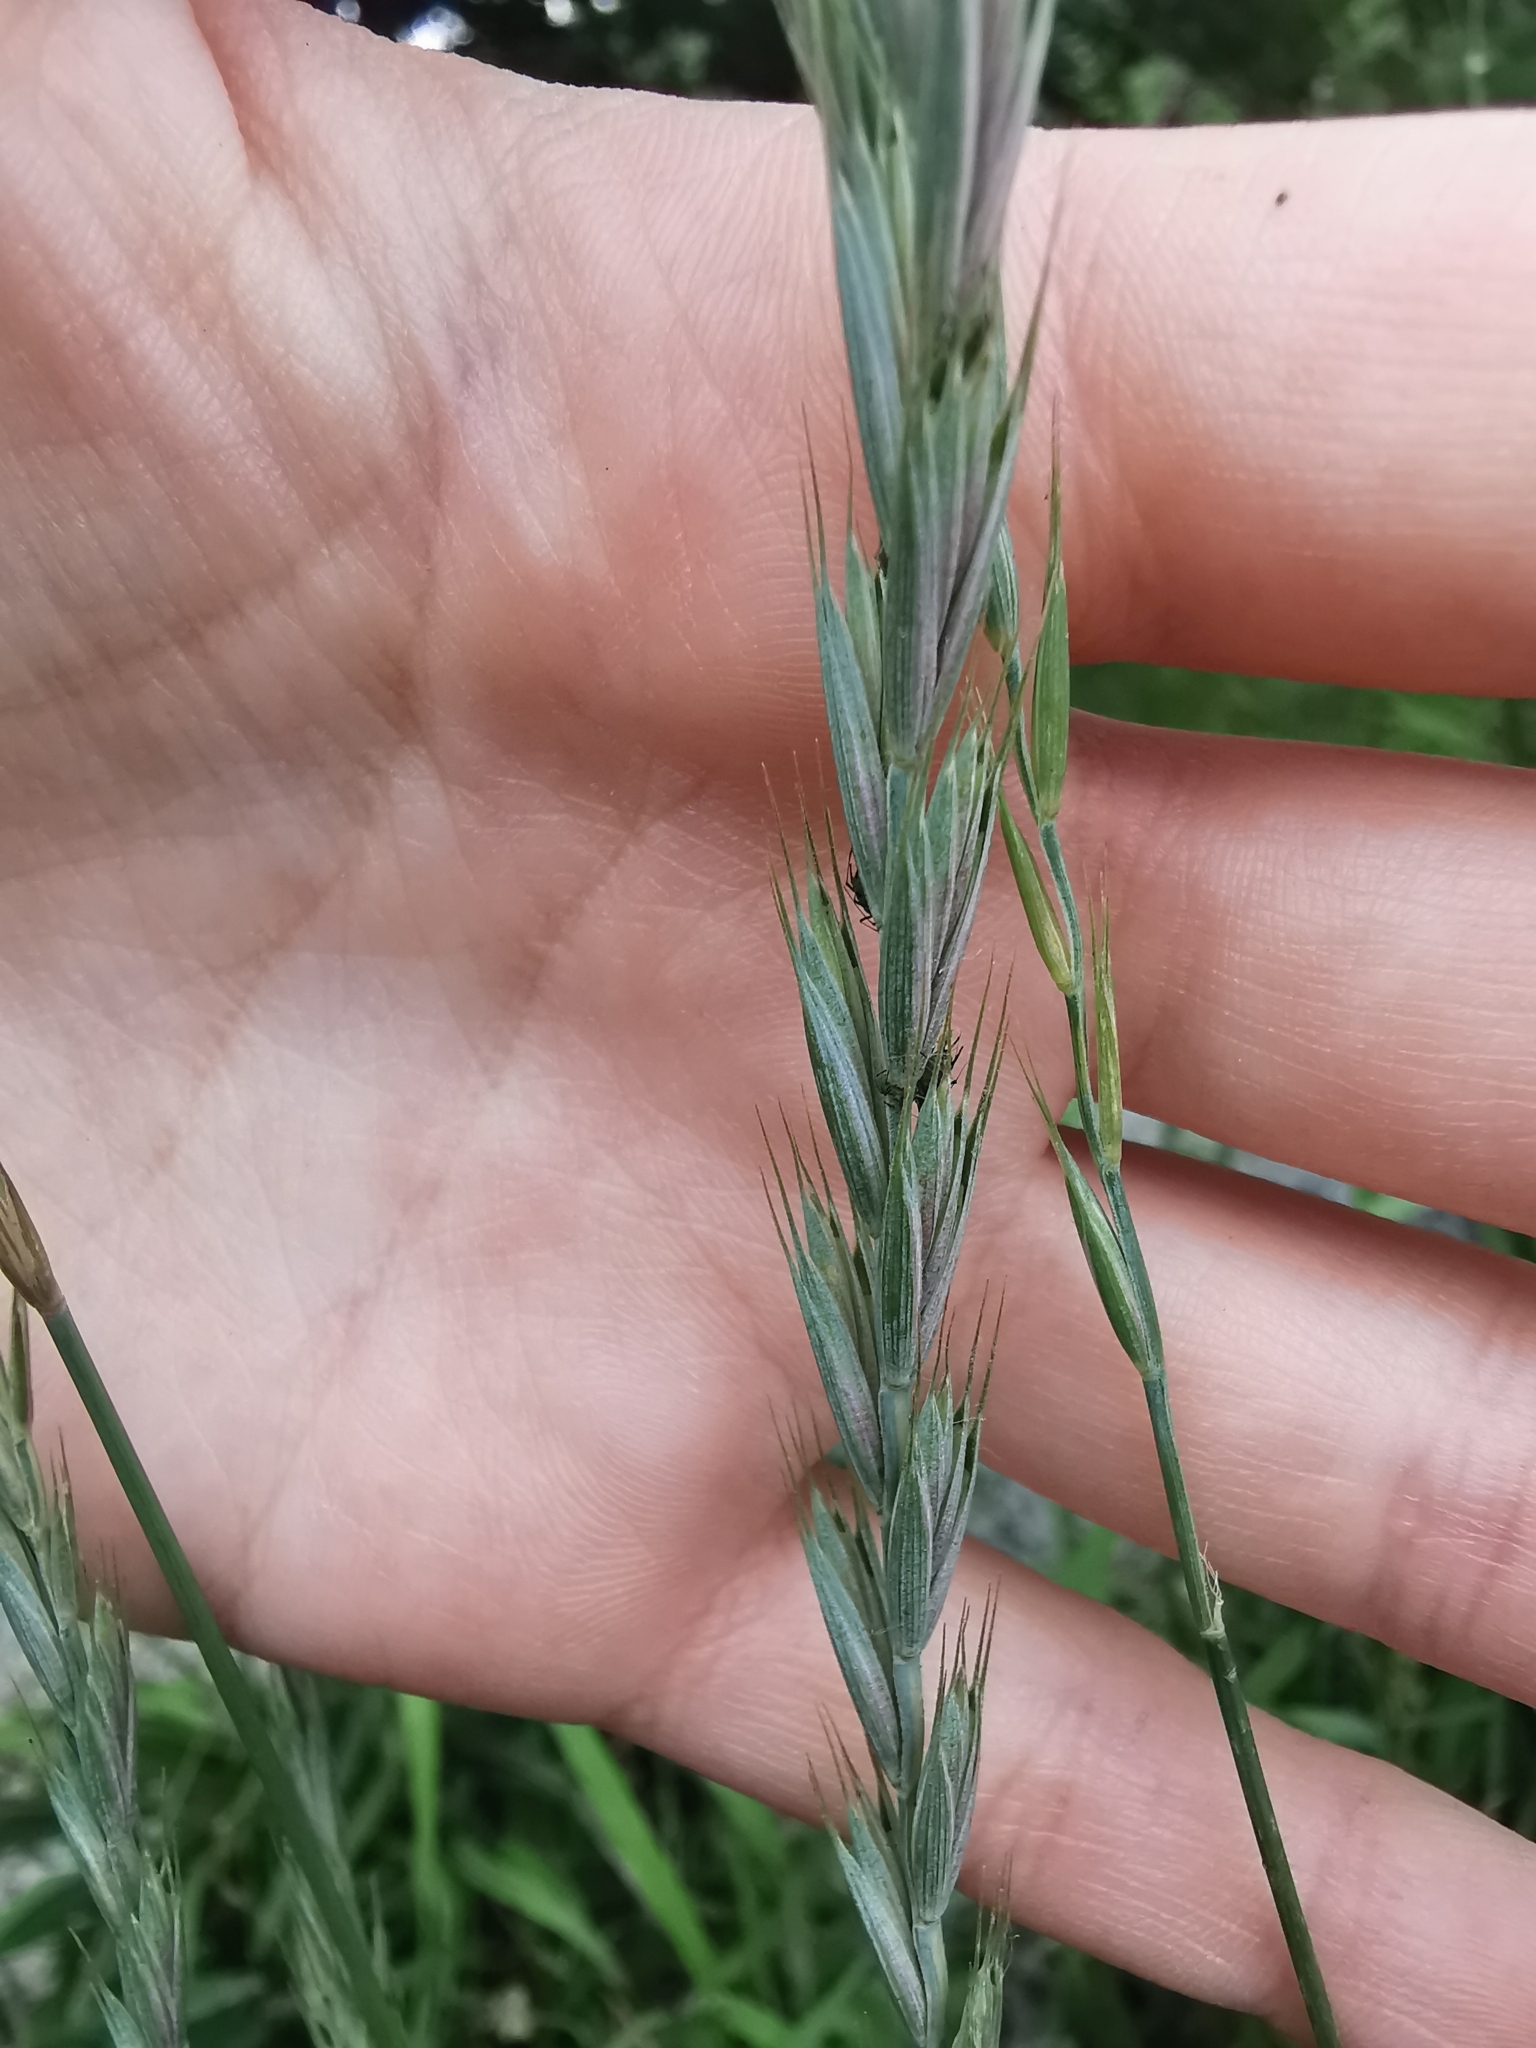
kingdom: Plantae
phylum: Tracheophyta
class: Liliopsida
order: Poales
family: Poaceae
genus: Elymus
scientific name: Elymus repens
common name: Quackgrass
